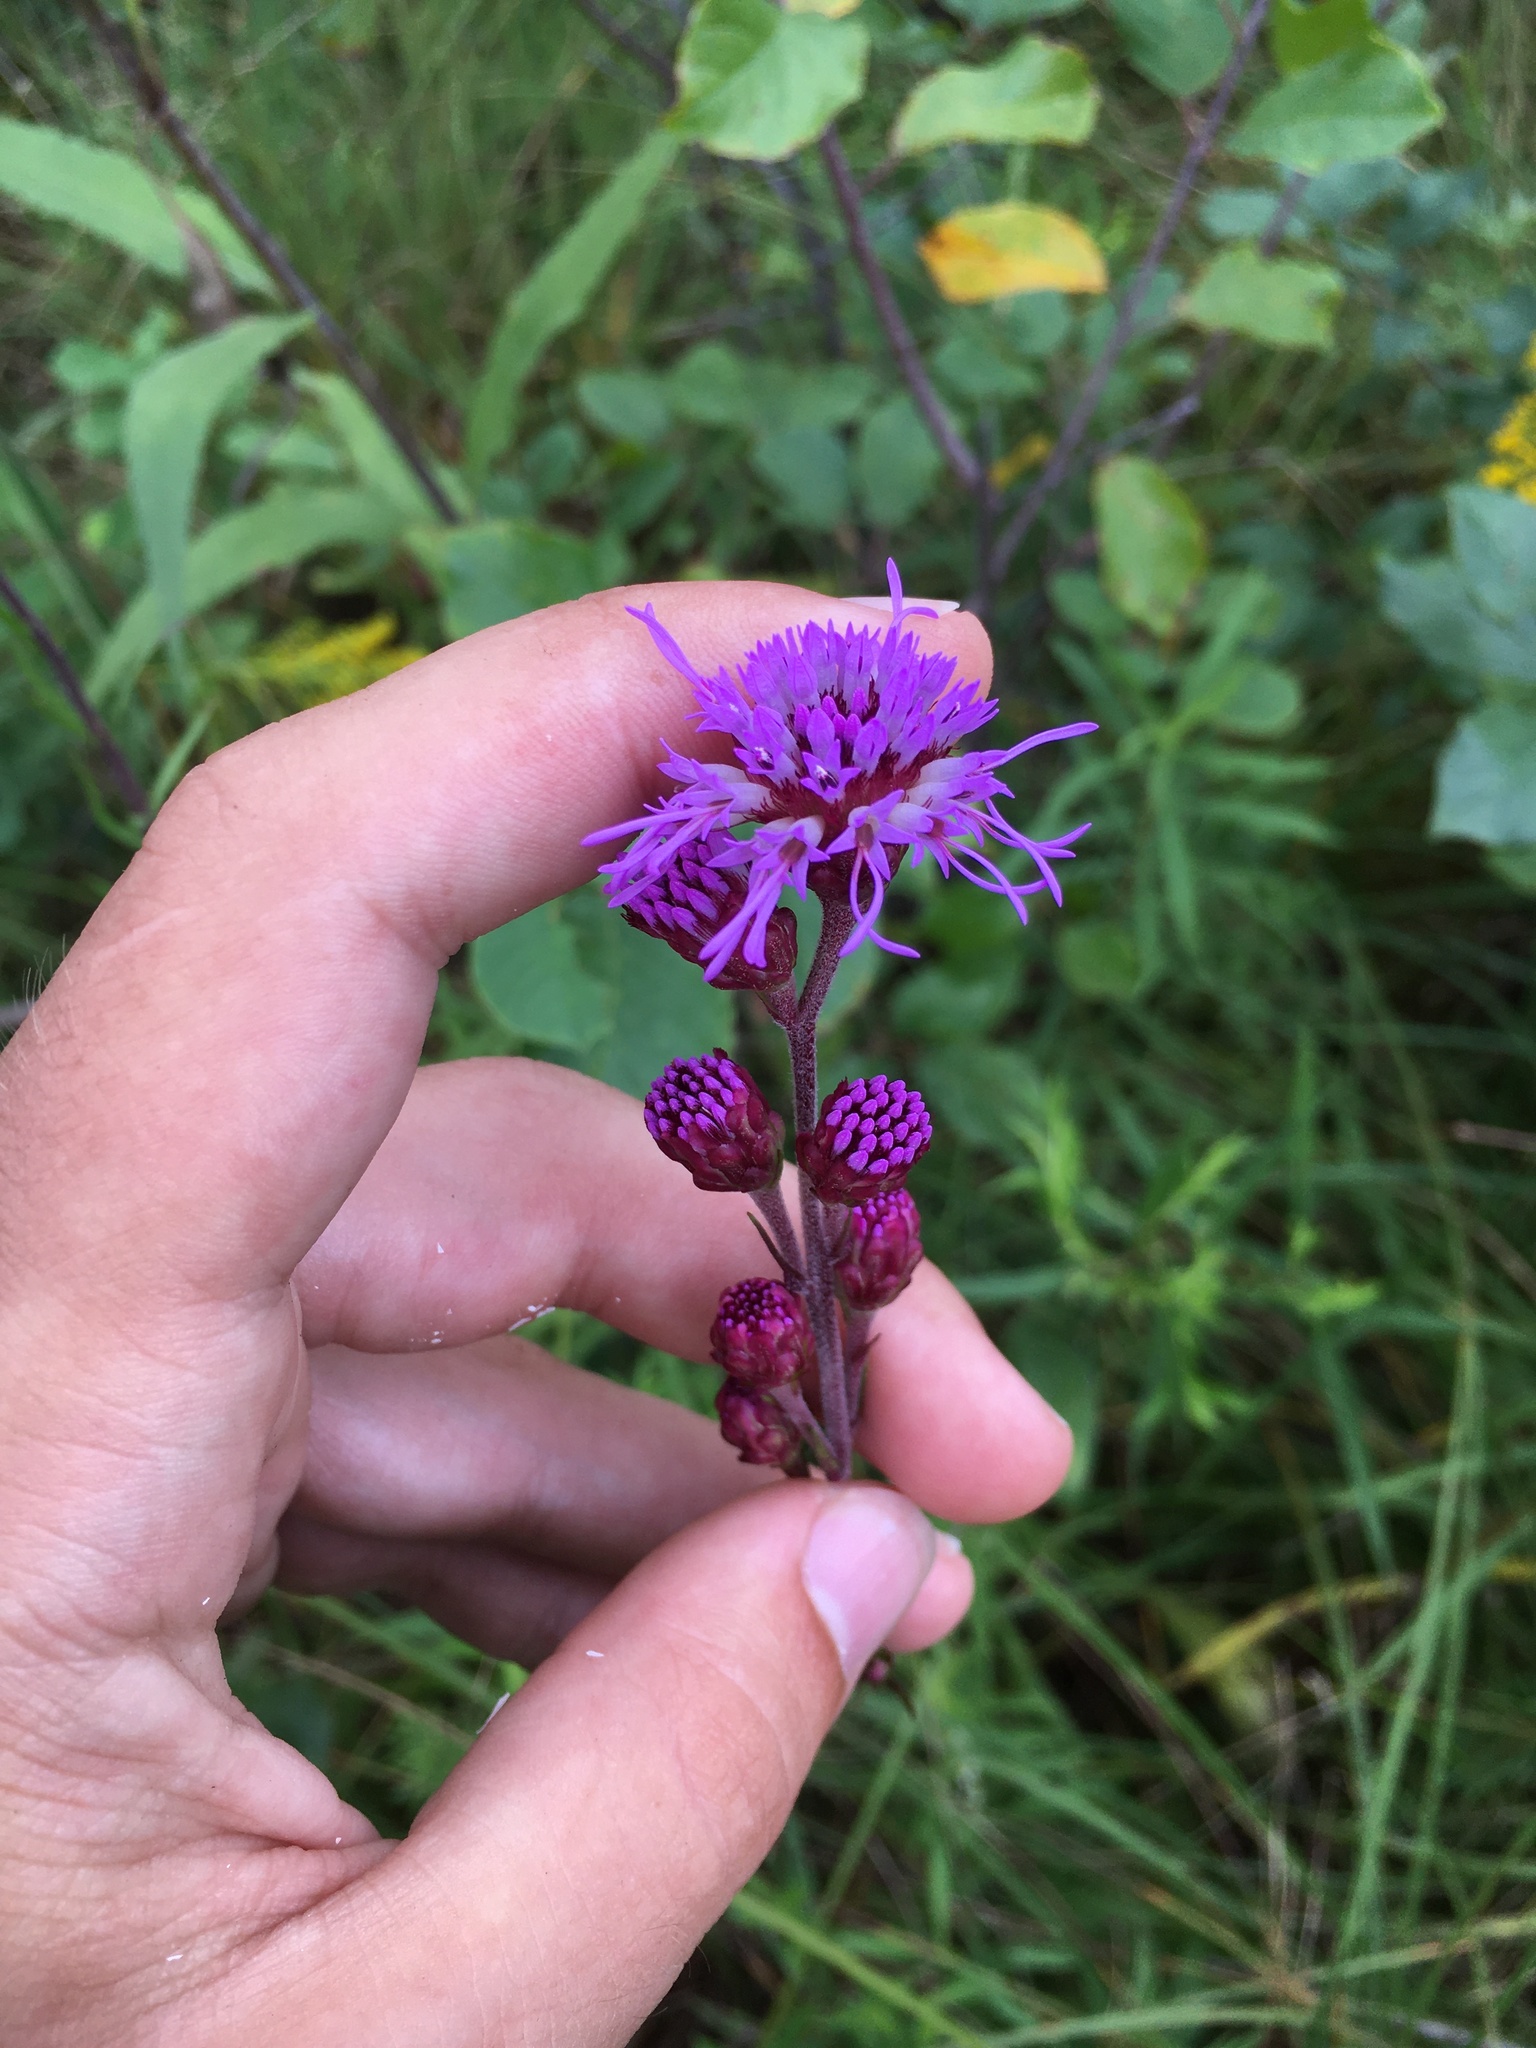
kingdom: Plantae
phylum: Tracheophyta
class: Magnoliopsida
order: Asterales
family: Asteraceae
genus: Liatris
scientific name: Liatris ligulistylis
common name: Northern plains gayfeather
